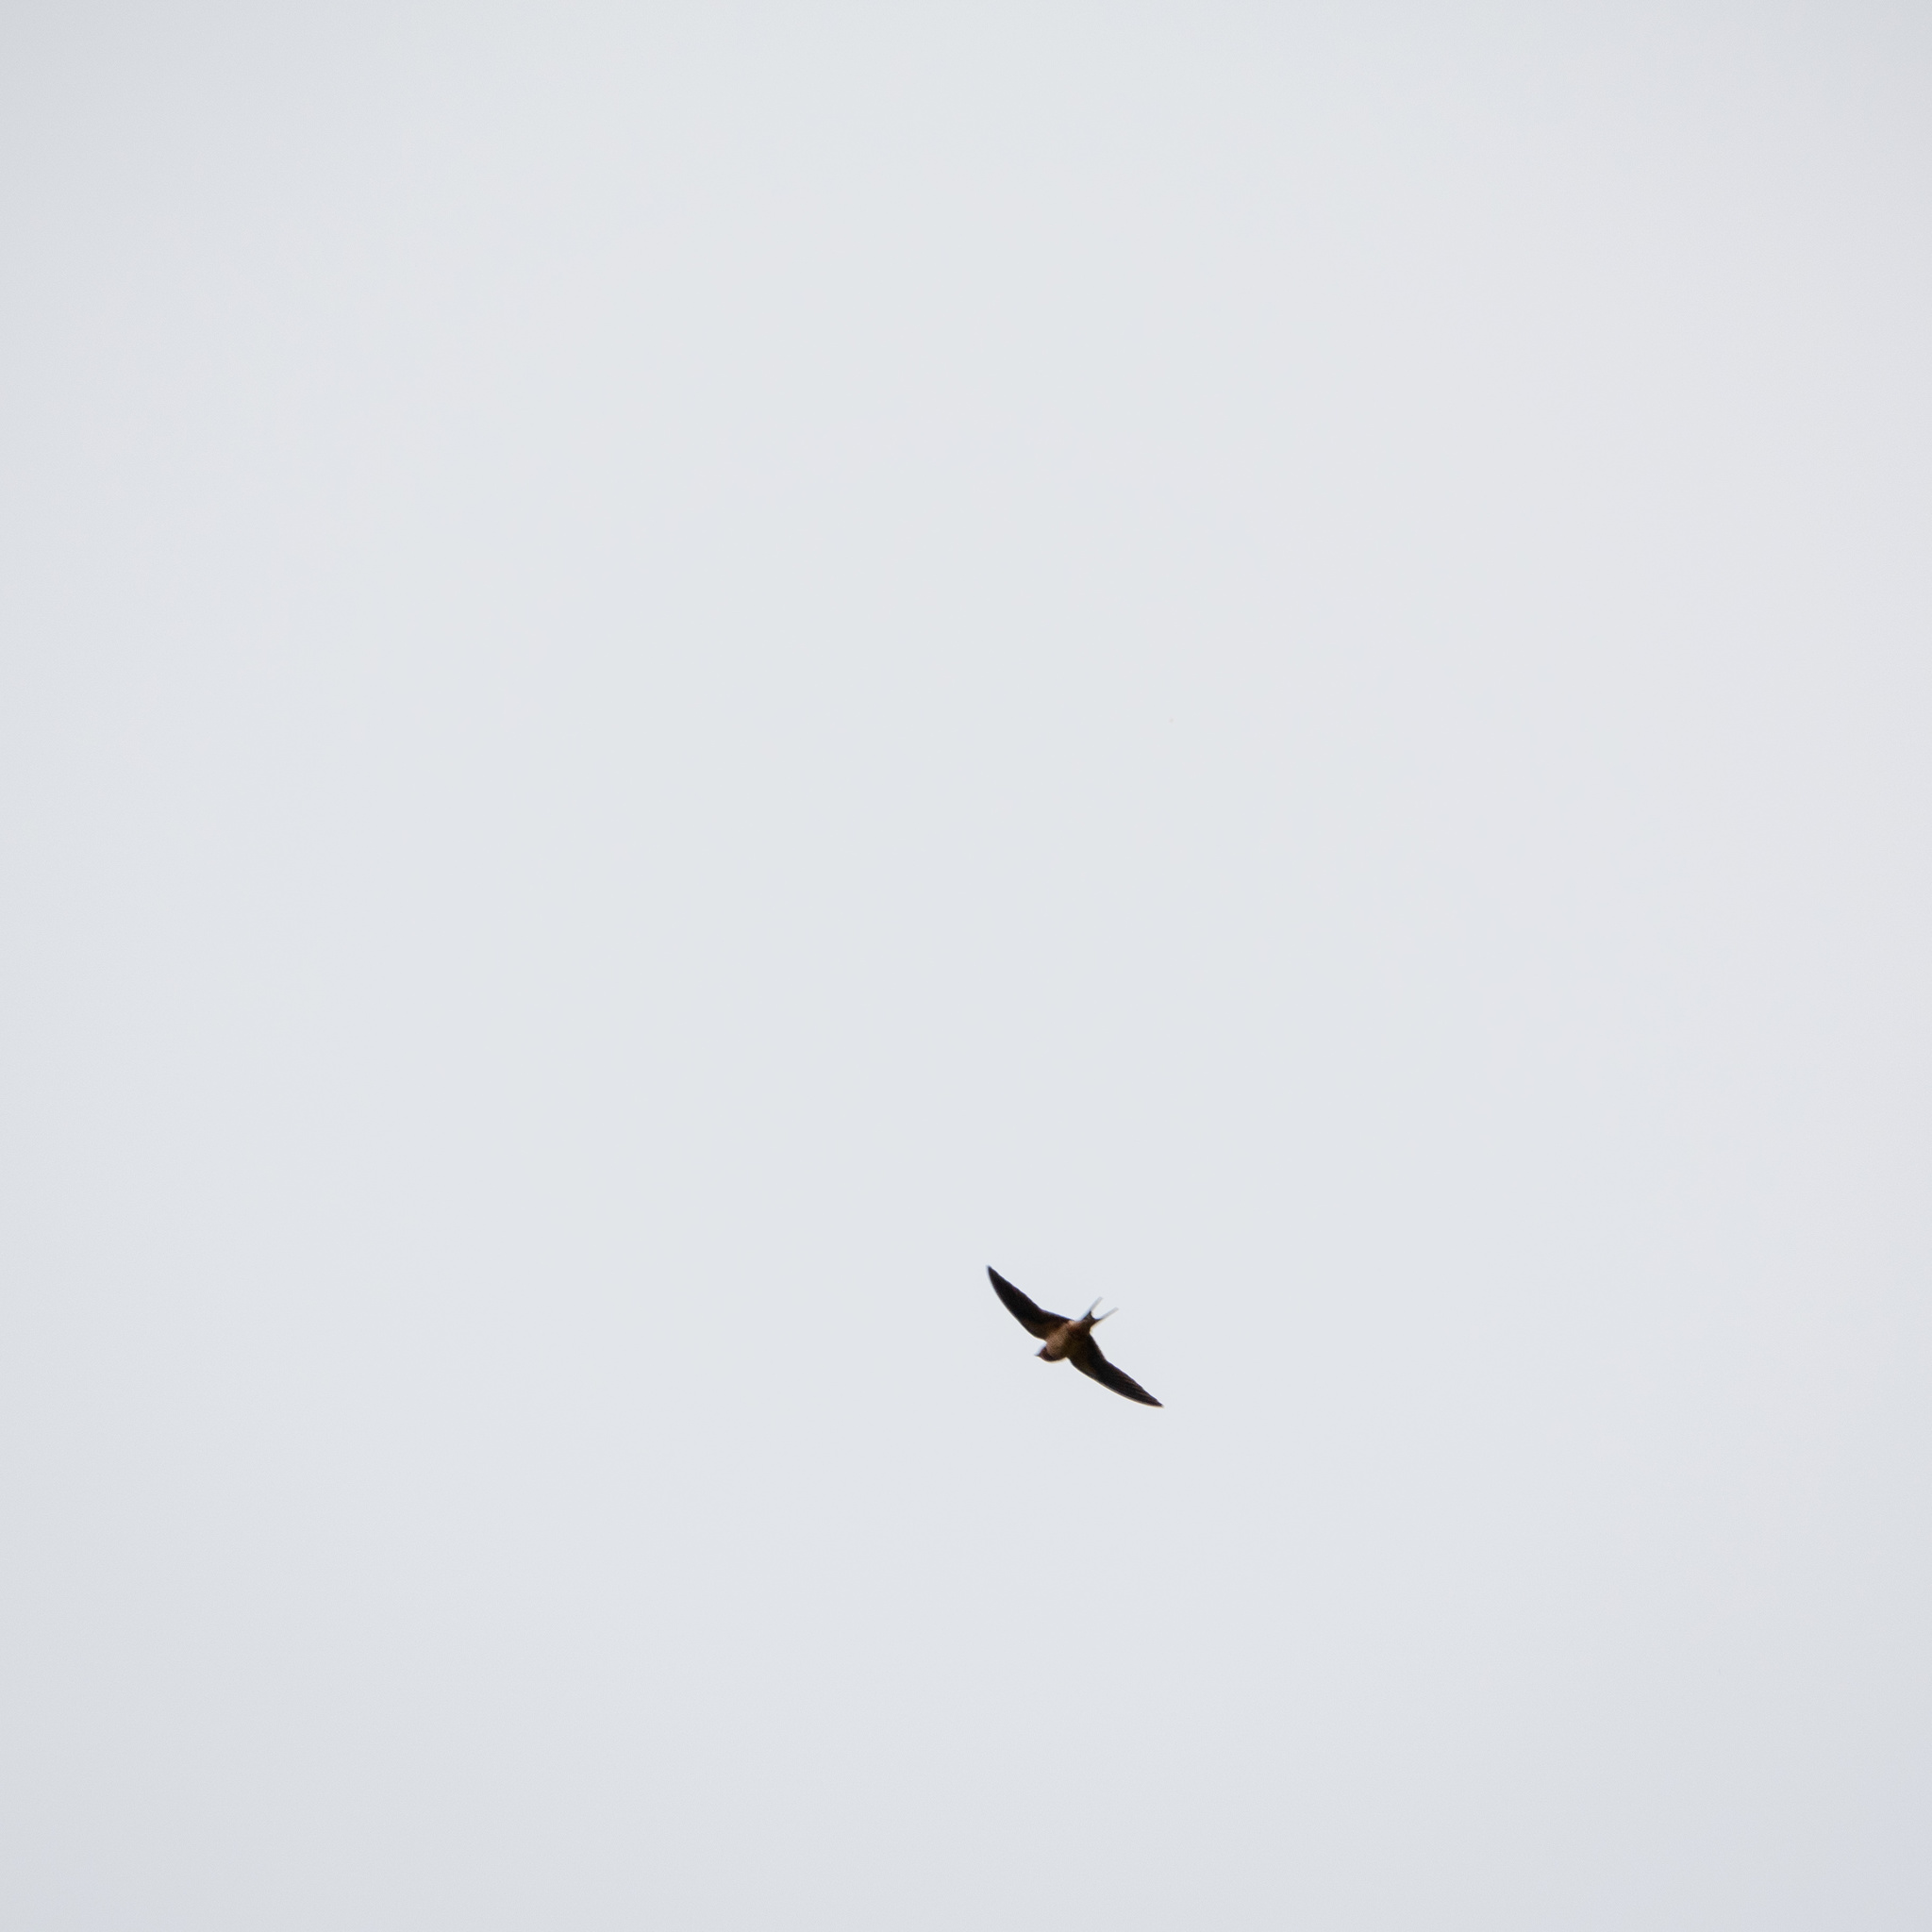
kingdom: Animalia
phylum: Chordata
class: Aves
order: Passeriformes
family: Hirundinidae
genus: Hirundo
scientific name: Hirundo rustica
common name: Barn swallow
